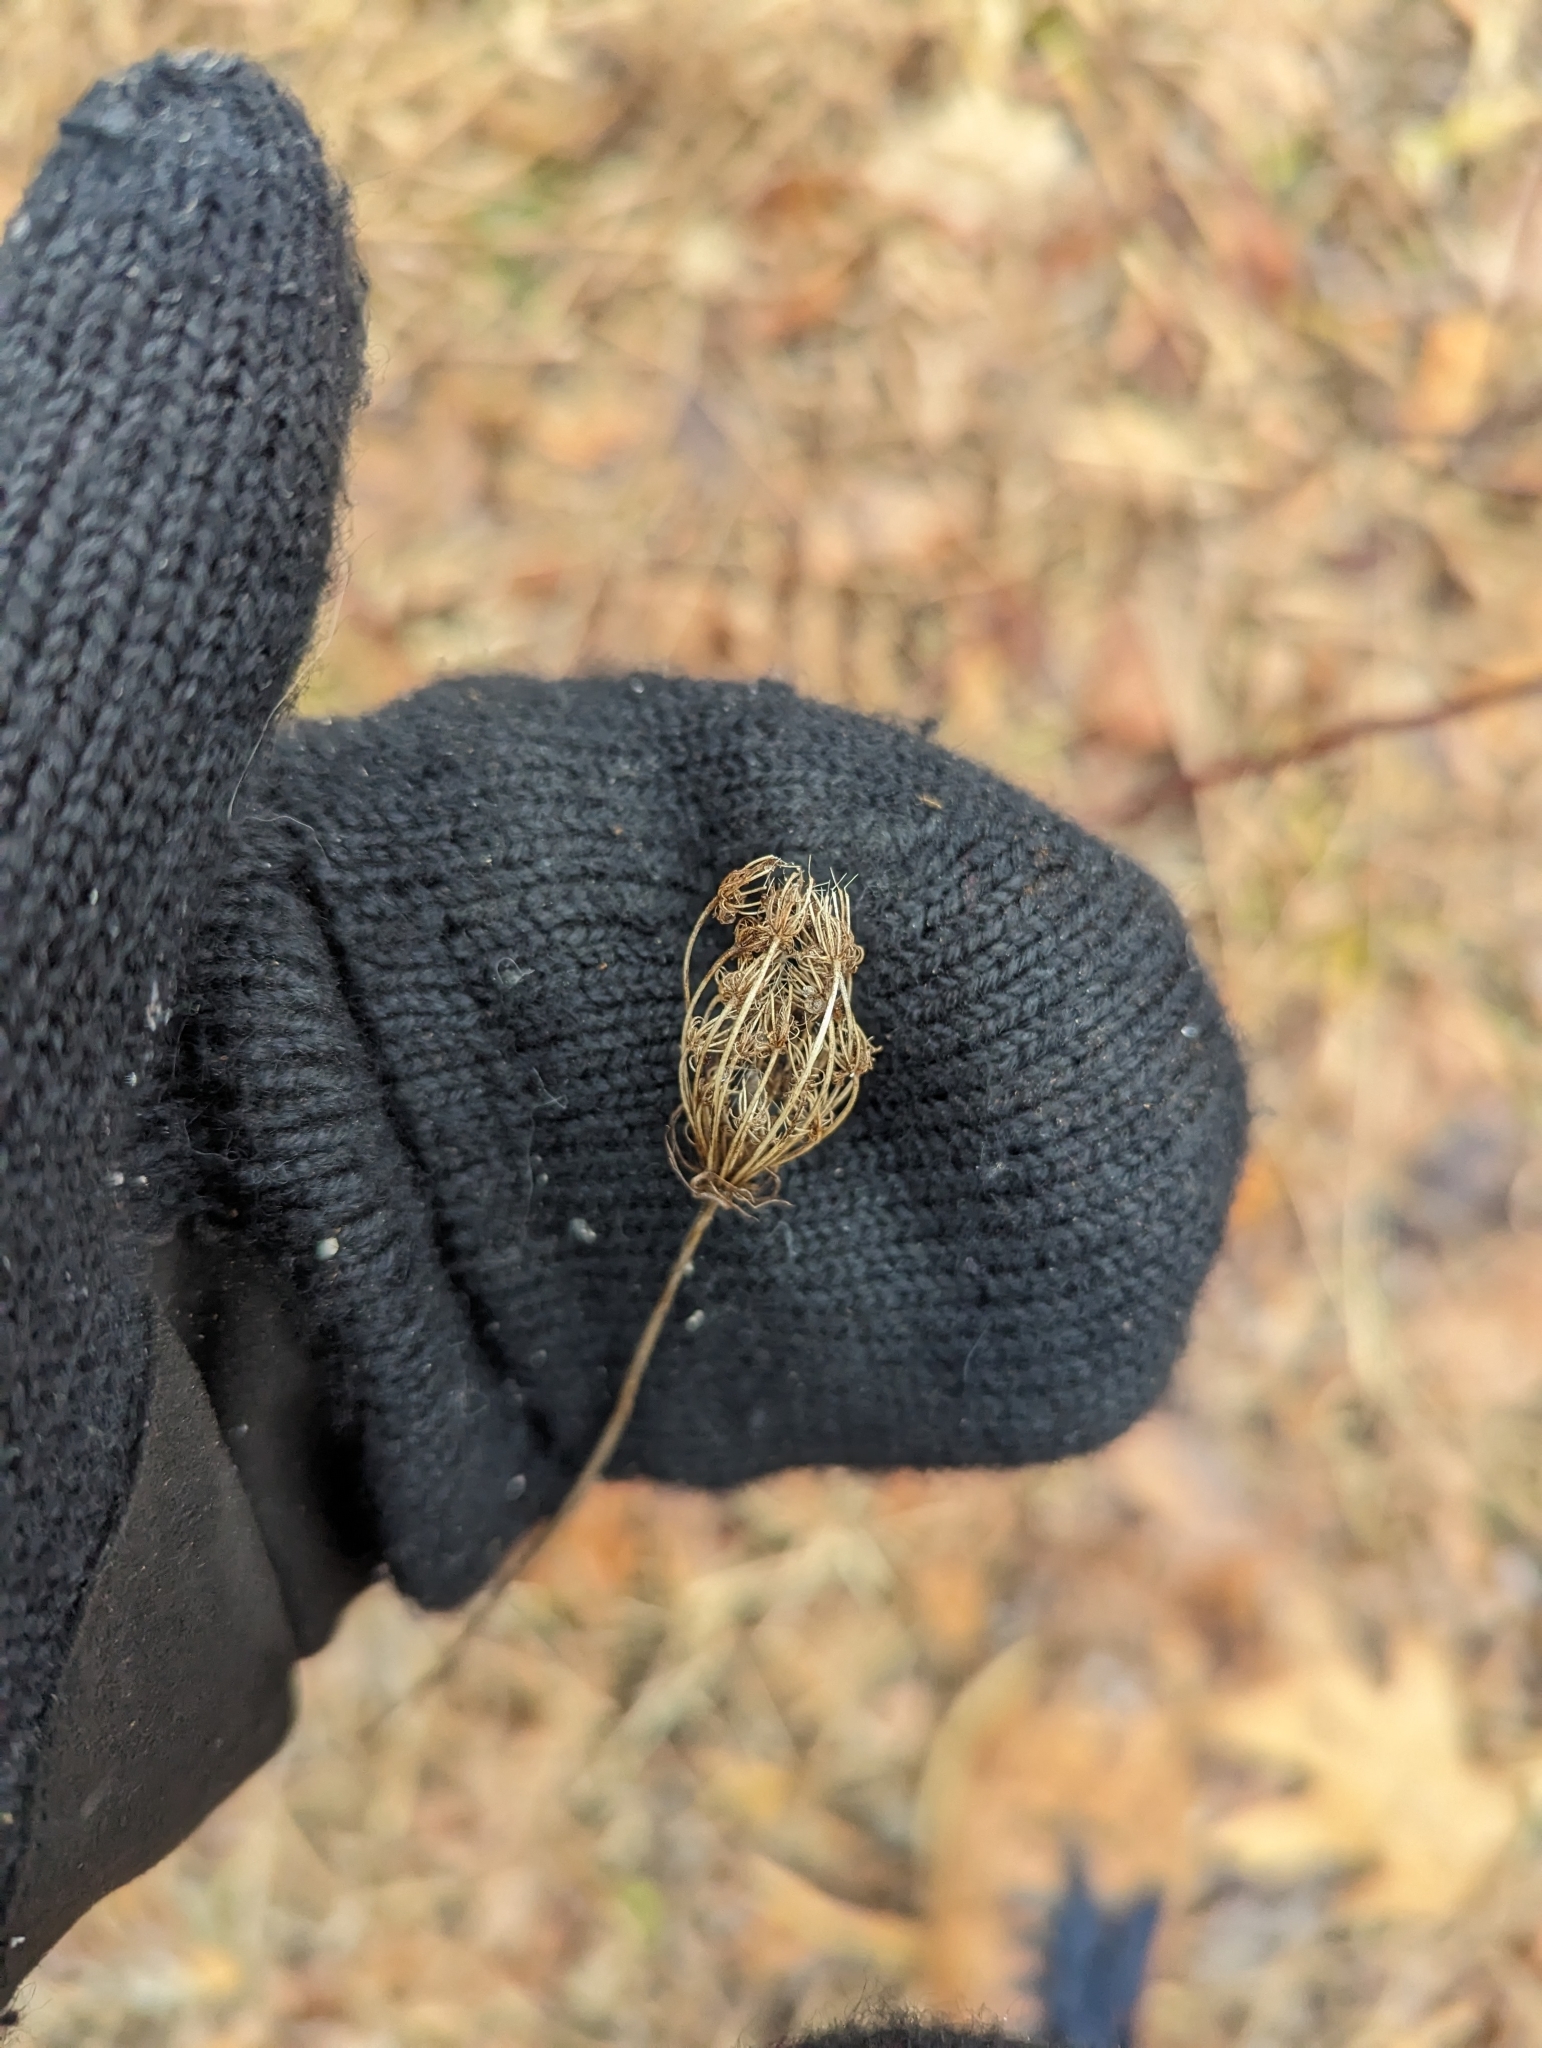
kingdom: Plantae
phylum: Tracheophyta
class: Magnoliopsida
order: Apiales
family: Apiaceae
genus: Daucus
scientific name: Daucus carota
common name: Wild carrot
